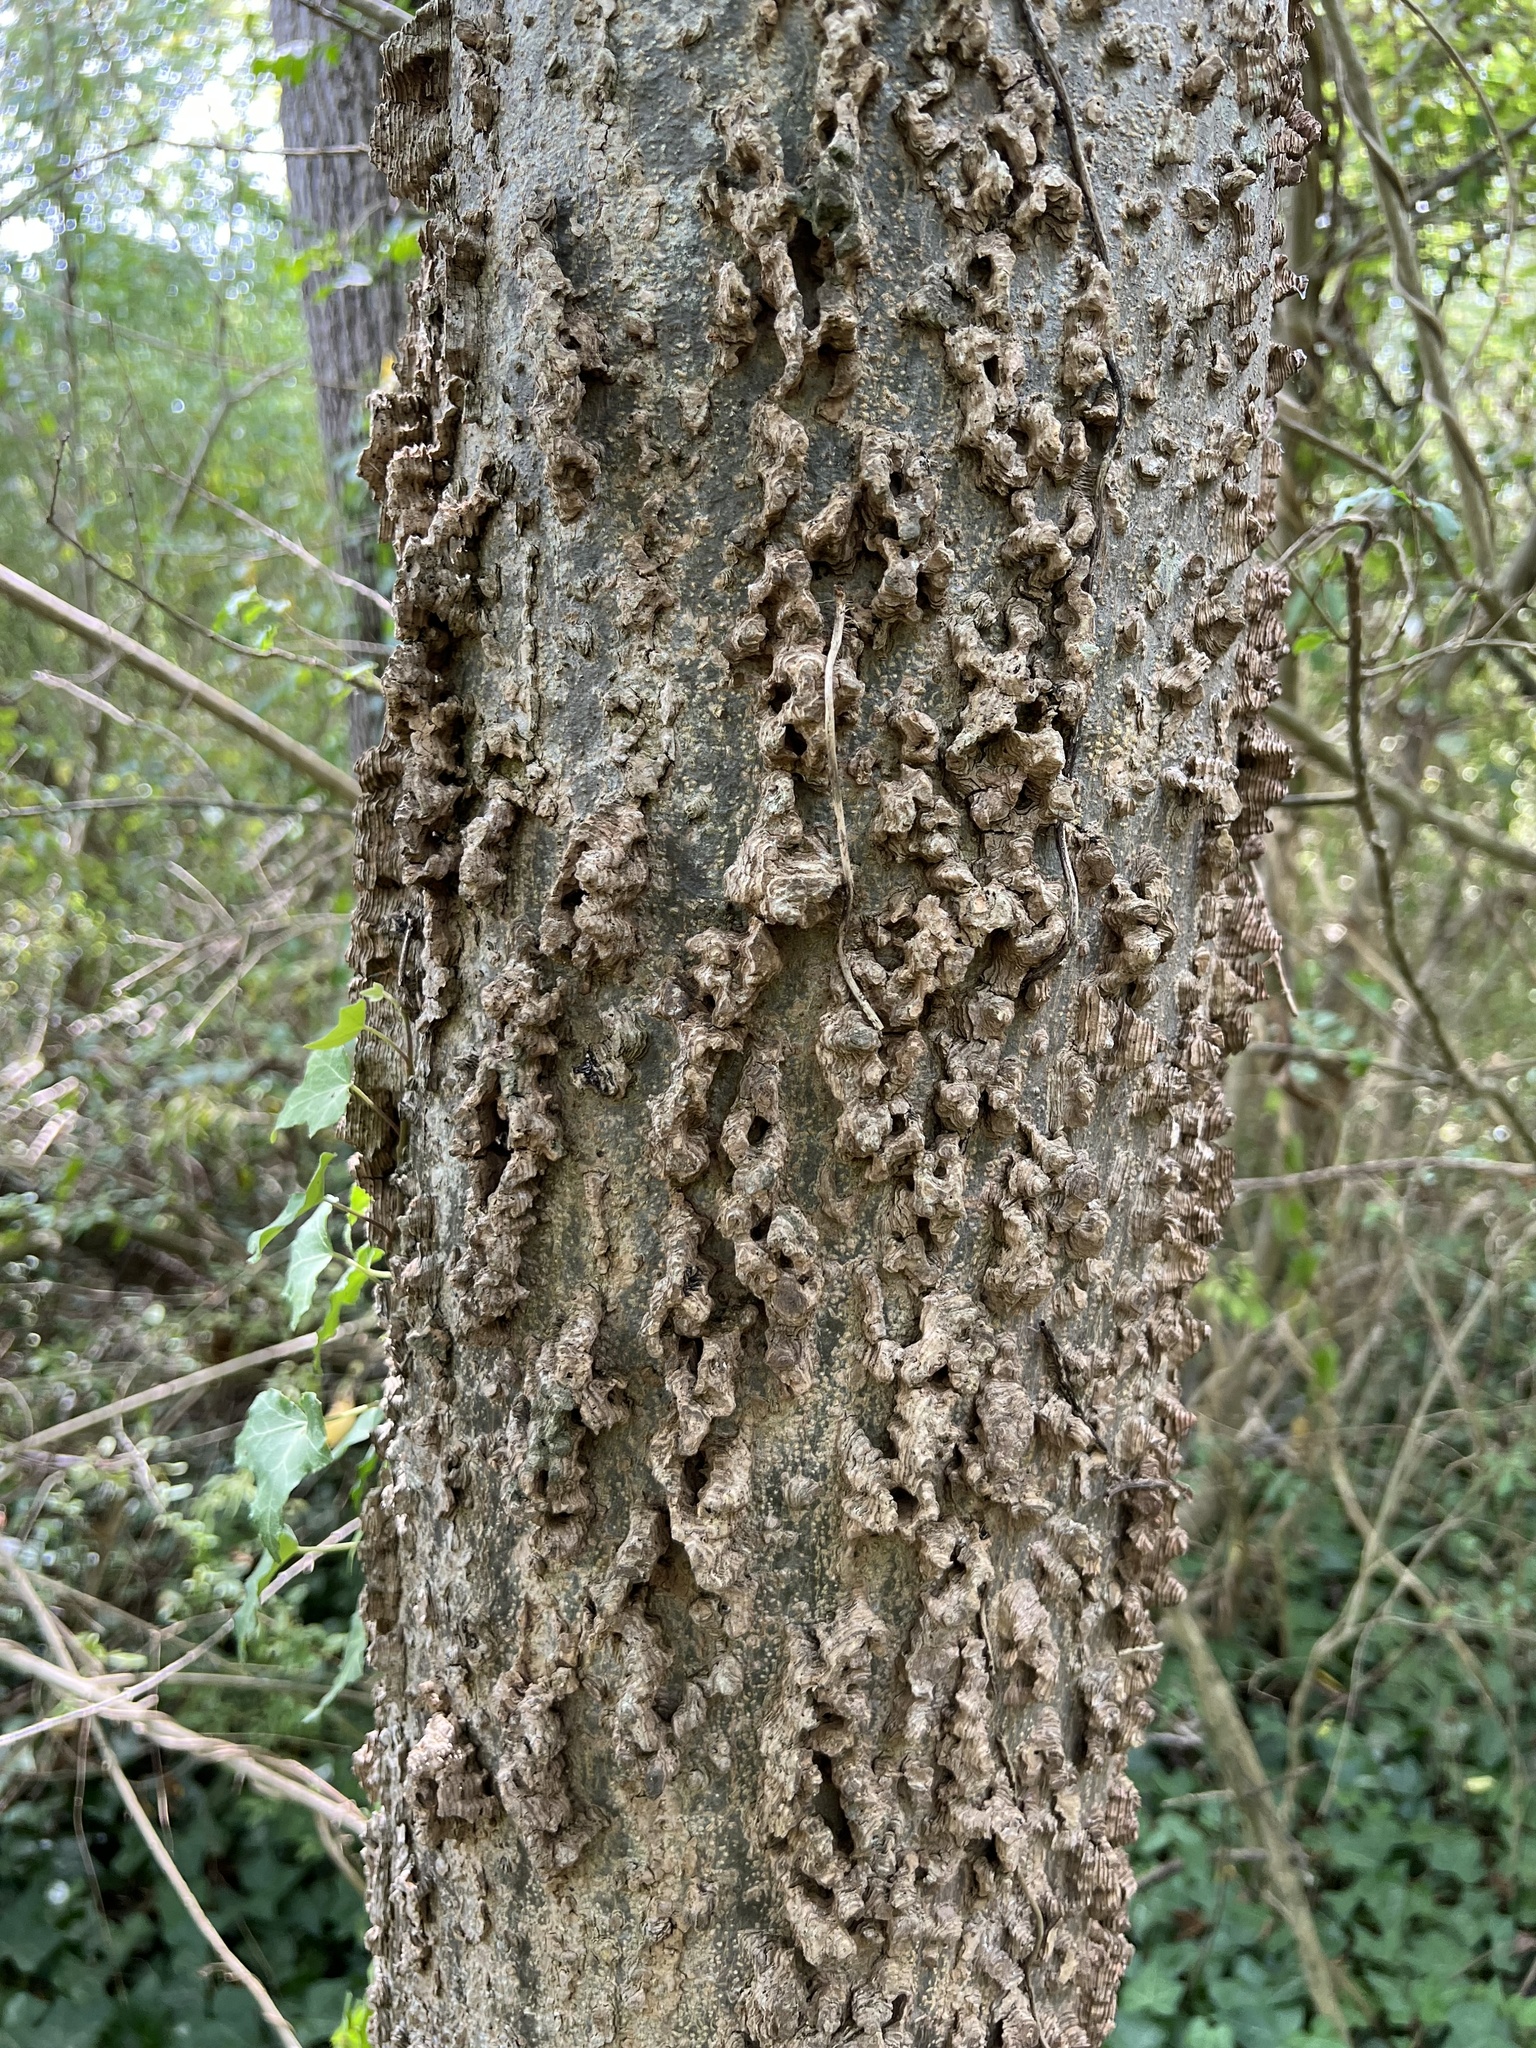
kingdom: Plantae
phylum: Tracheophyta
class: Magnoliopsida
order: Rosales
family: Cannabaceae
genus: Celtis
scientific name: Celtis occidentalis
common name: Common hackberry
